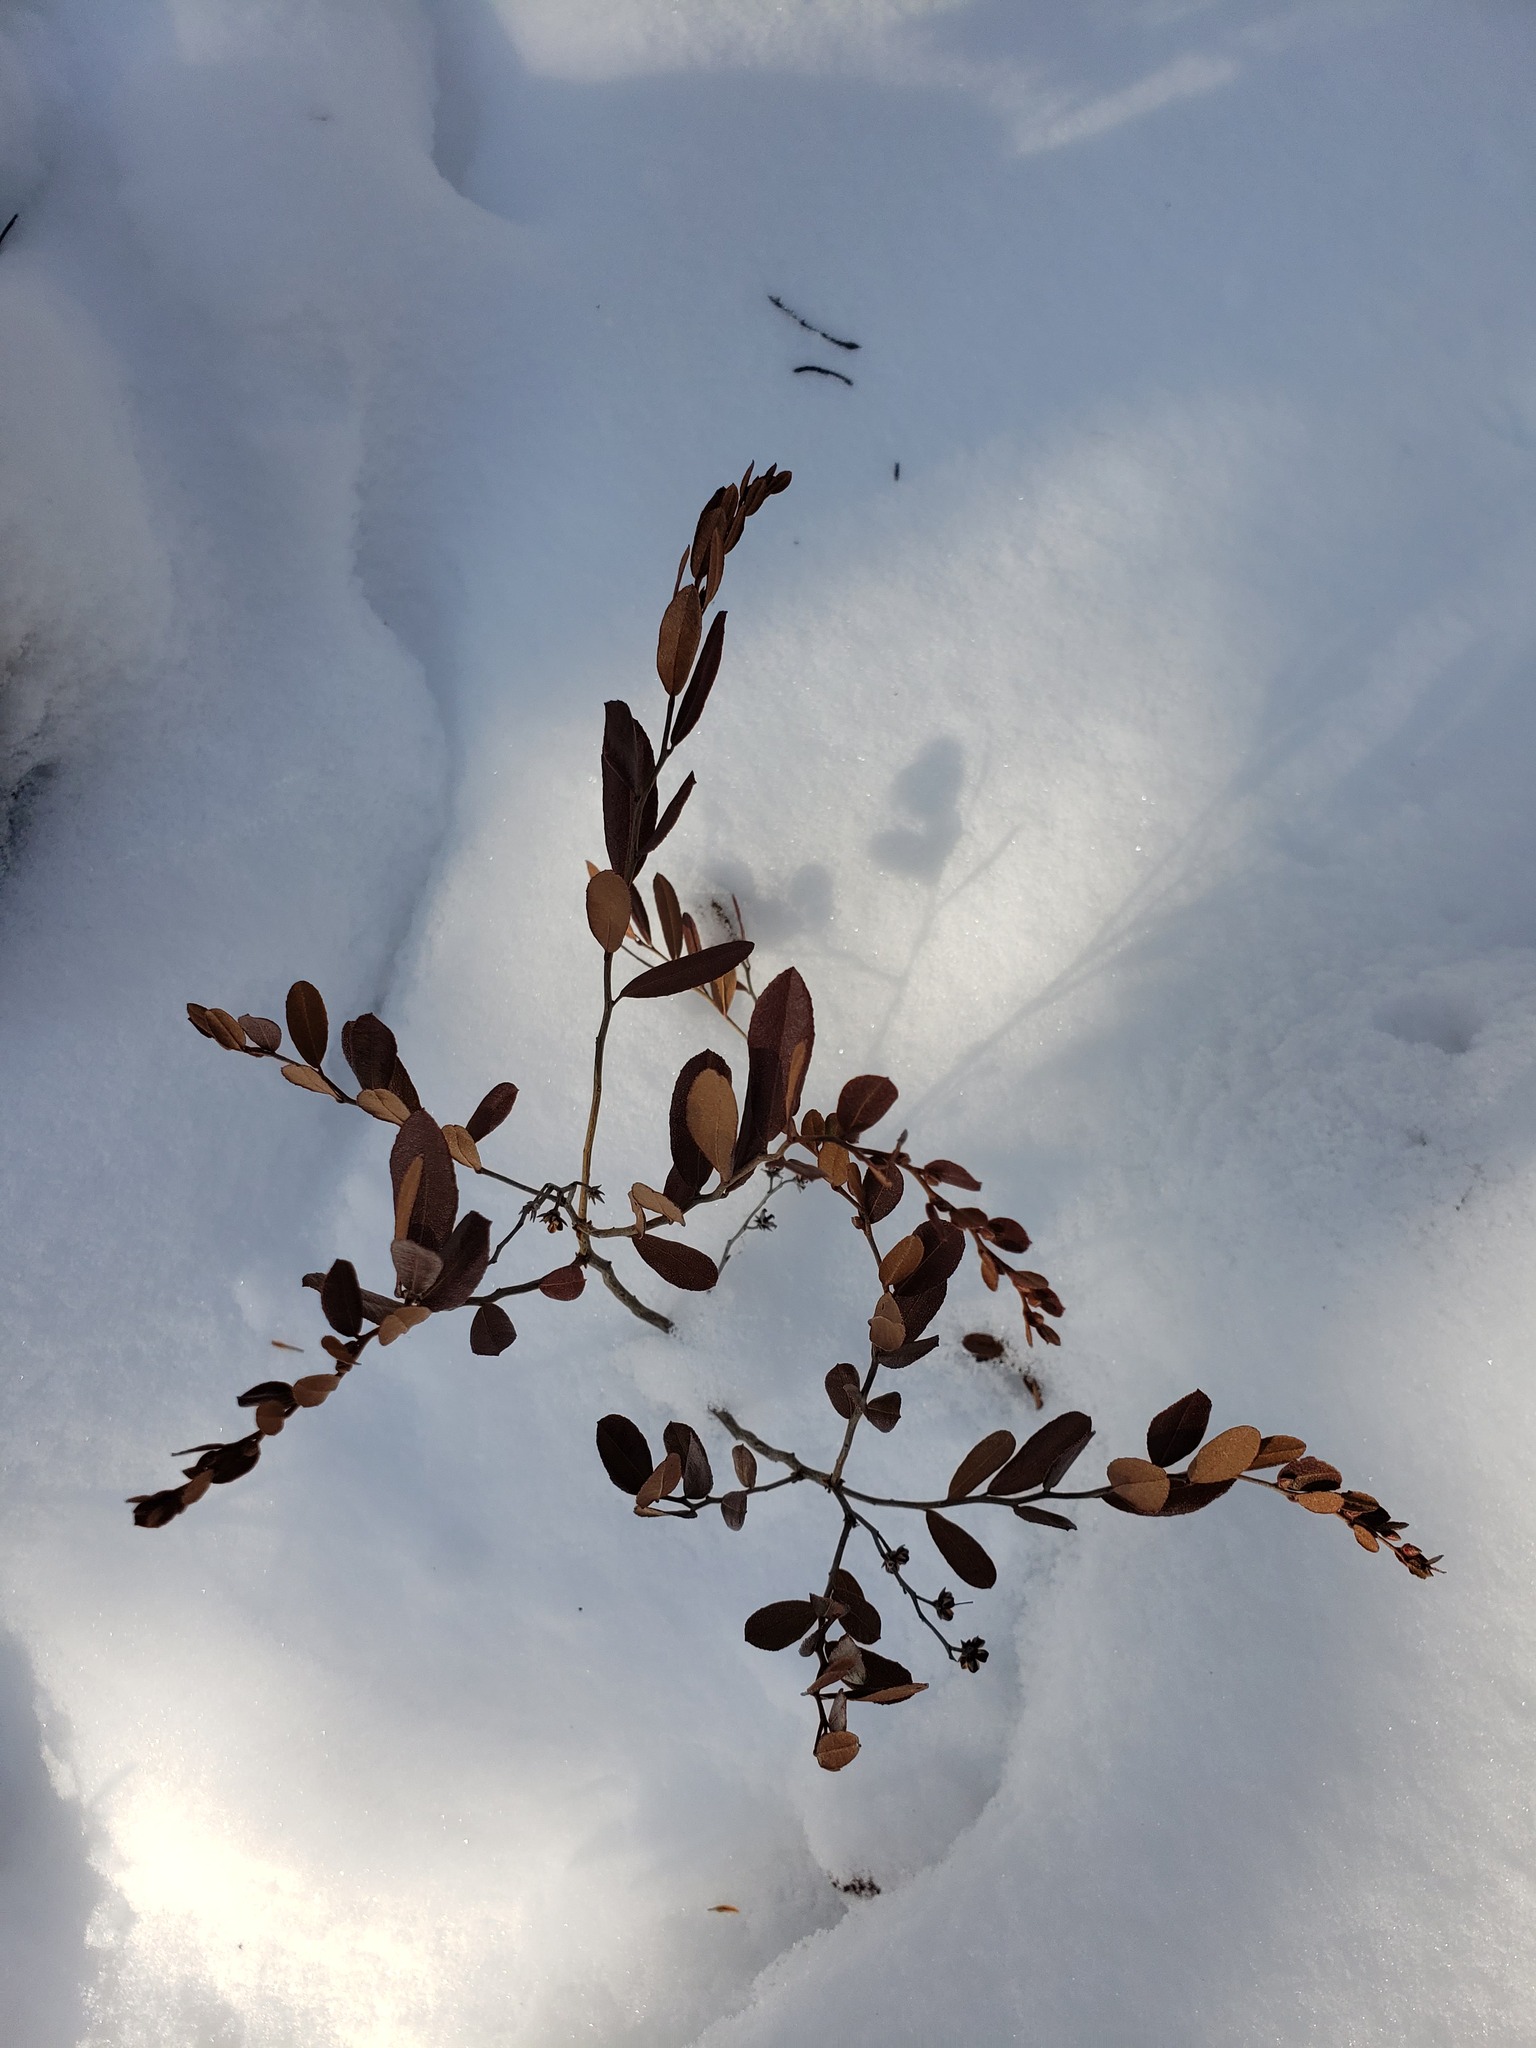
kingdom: Plantae
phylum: Tracheophyta
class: Magnoliopsida
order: Ericales
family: Ericaceae
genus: Chamaedaphne
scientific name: Chamaedaphne calyculata
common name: Leatherleaf
